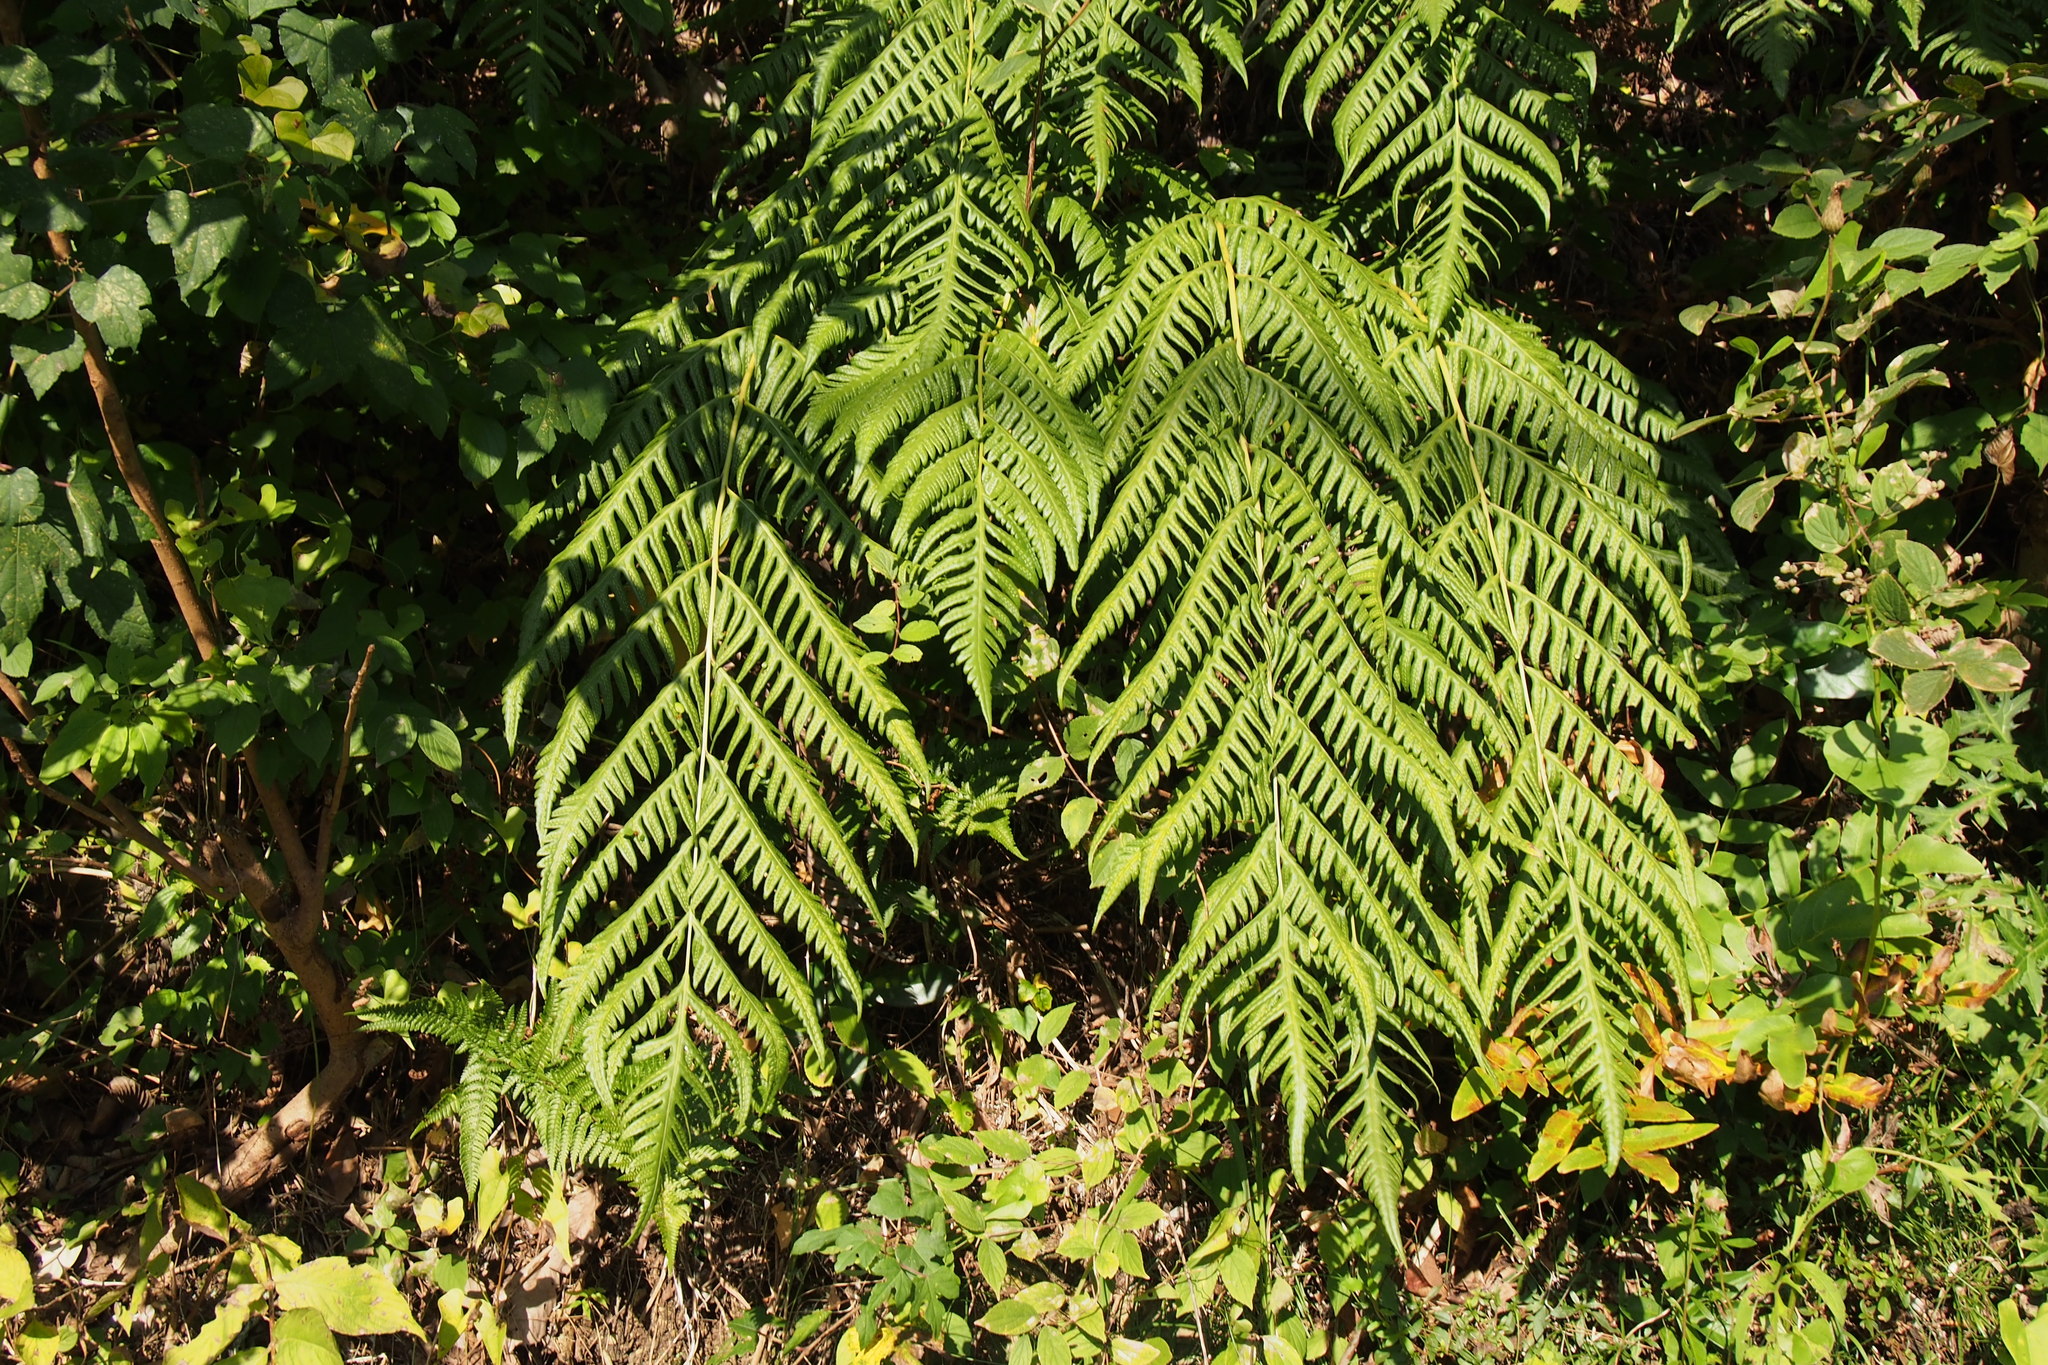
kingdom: Plantae
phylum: Tracheophyta
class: Polypodiopsida
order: Polypodiales
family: Blechnaceae
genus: Woodwardia
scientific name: Woodwardia orientalis
